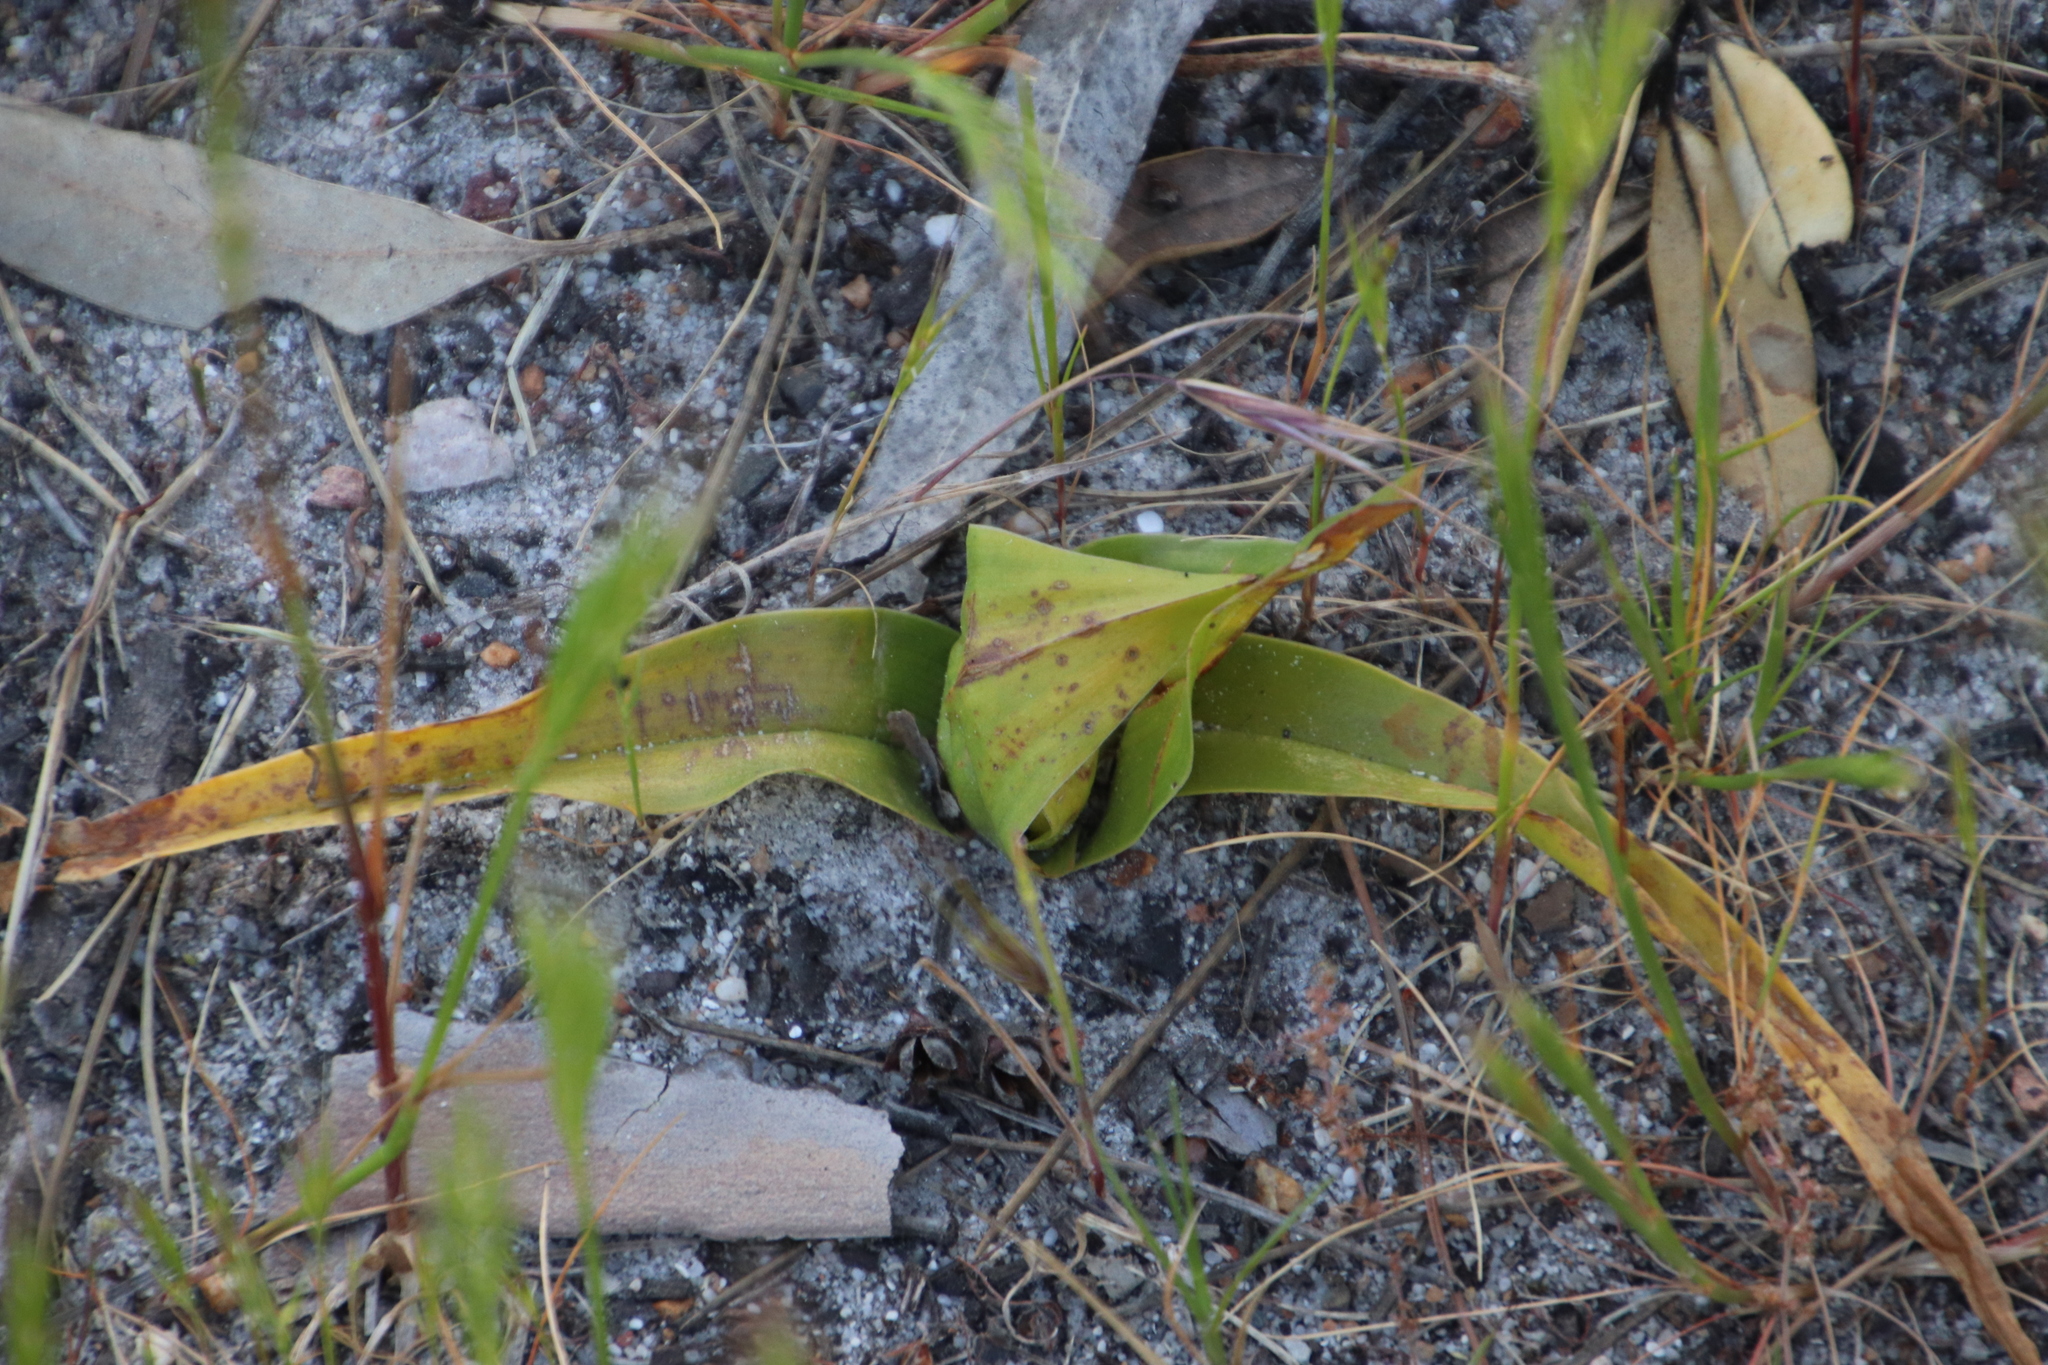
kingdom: Plantae
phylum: Tracheophyta
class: Liliopsida
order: Liliales
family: Colchicaceae
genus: Colchicum
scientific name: Colchicum eucomoides
